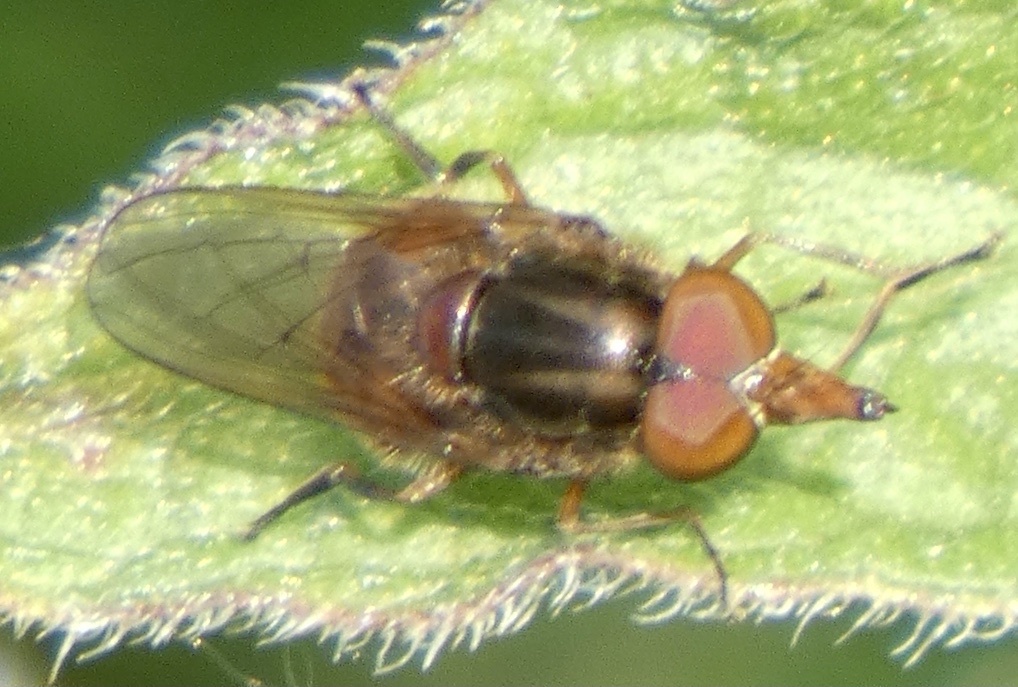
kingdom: Animalia
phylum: Arthropoda
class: Insecta
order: Diptera
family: Syrphidae
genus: Rhingia
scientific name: Rhingia campestris
